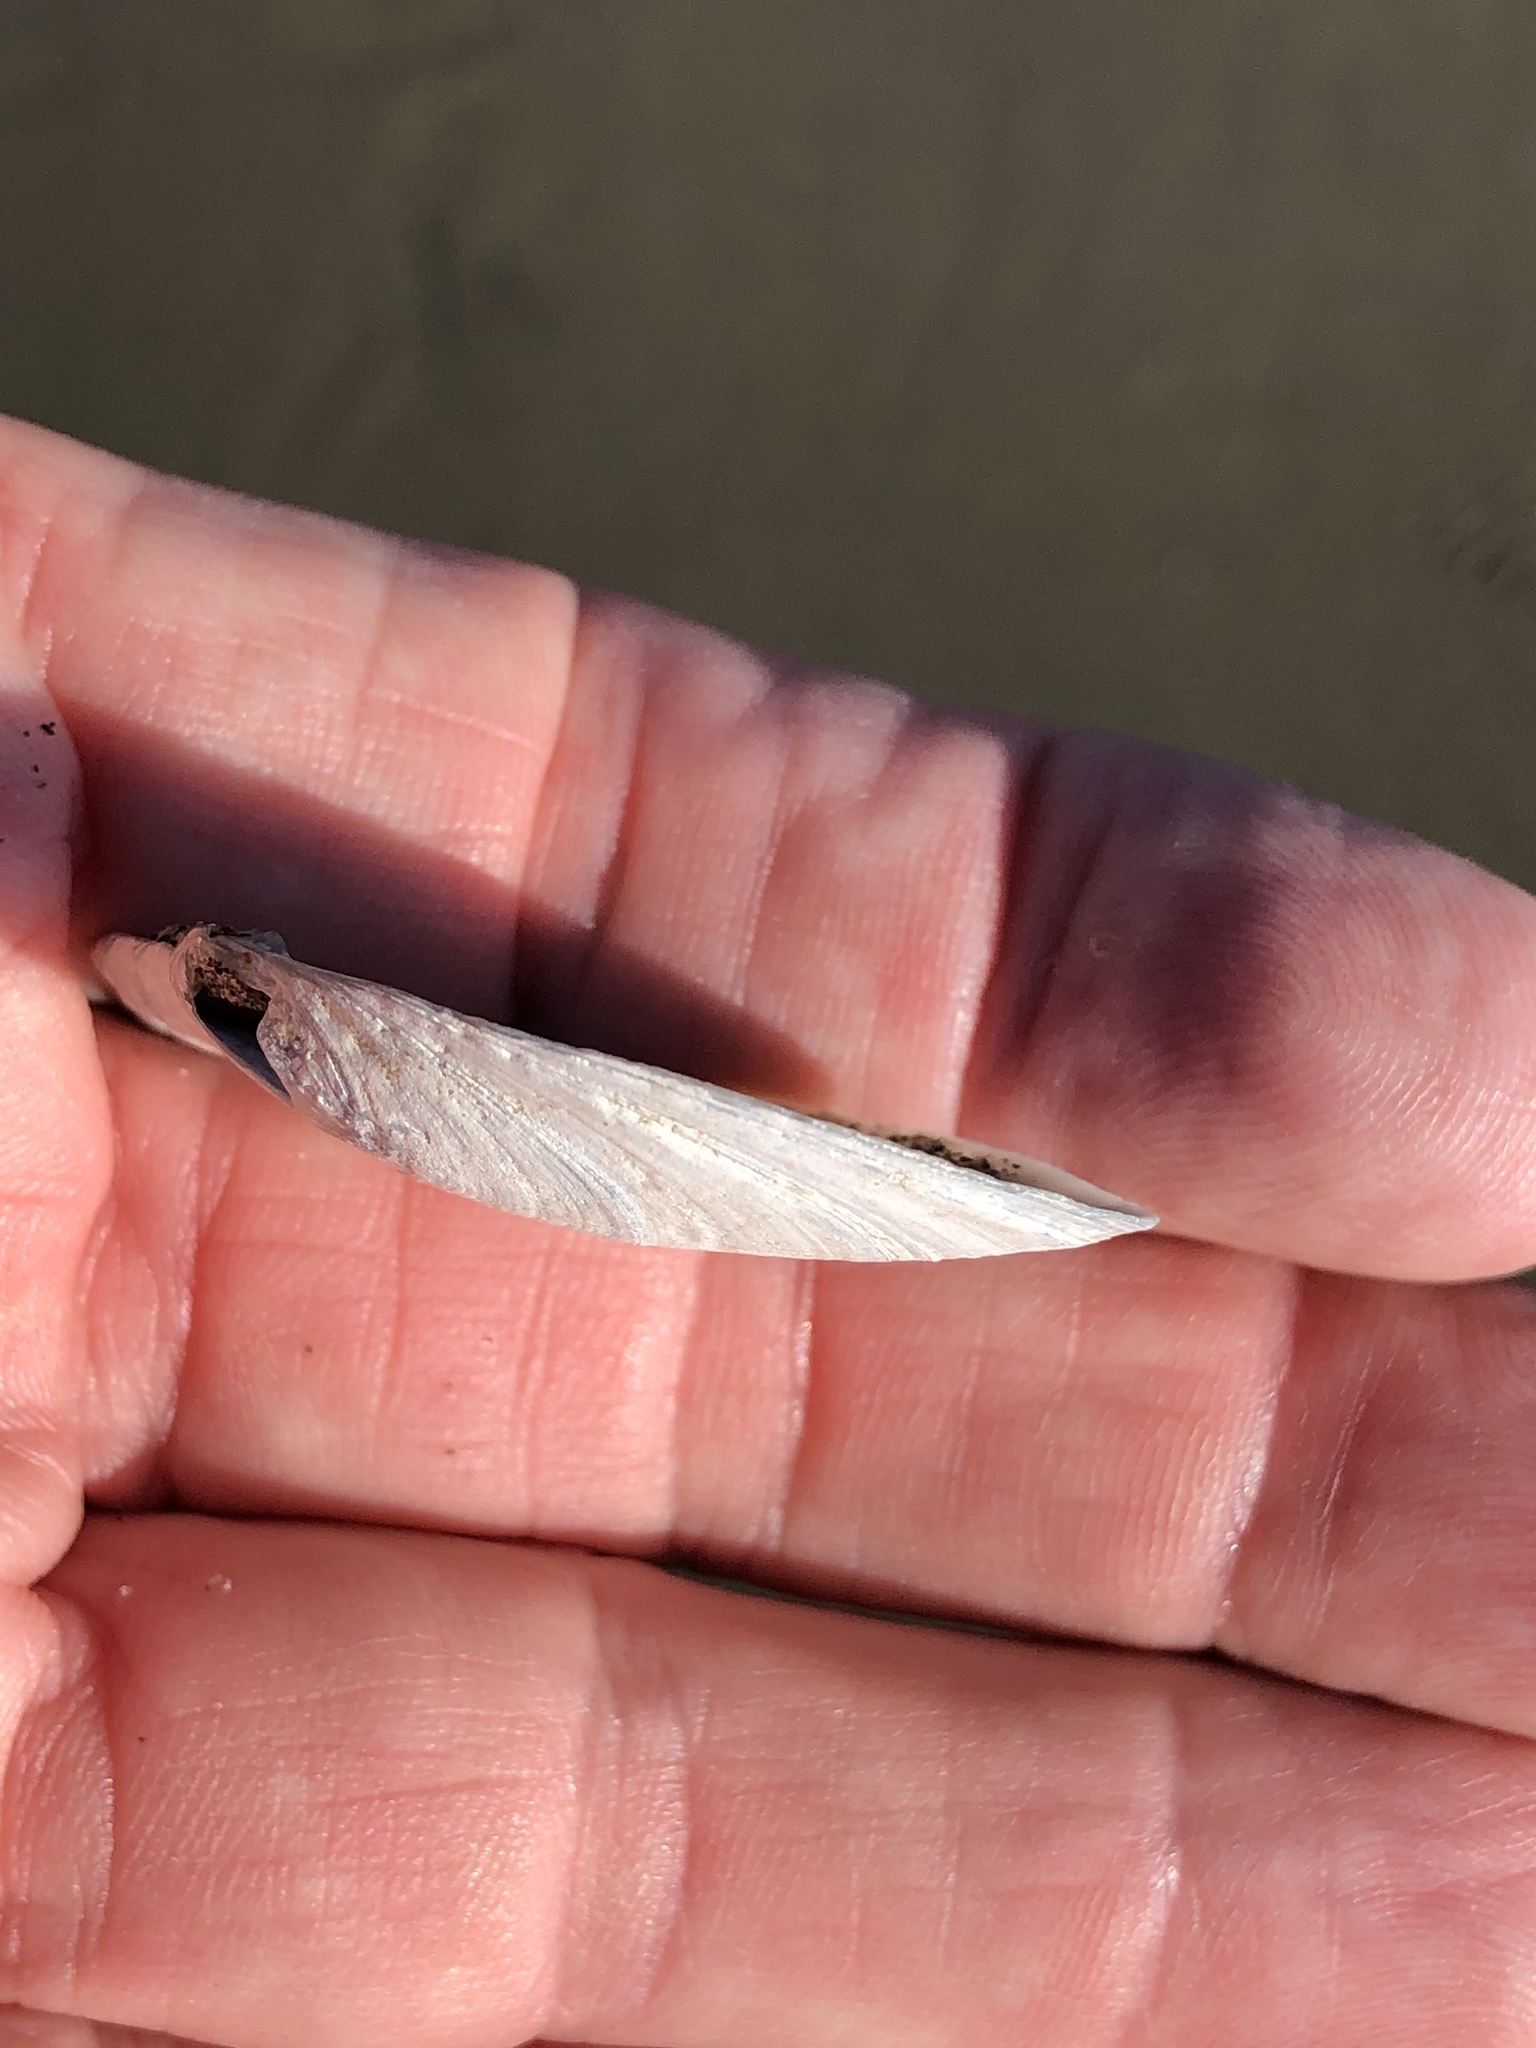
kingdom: Animalia
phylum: Mollusca
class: Bivalvia
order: Cardiida
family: Tellinidae
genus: Macoma
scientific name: Macoma nasuta
